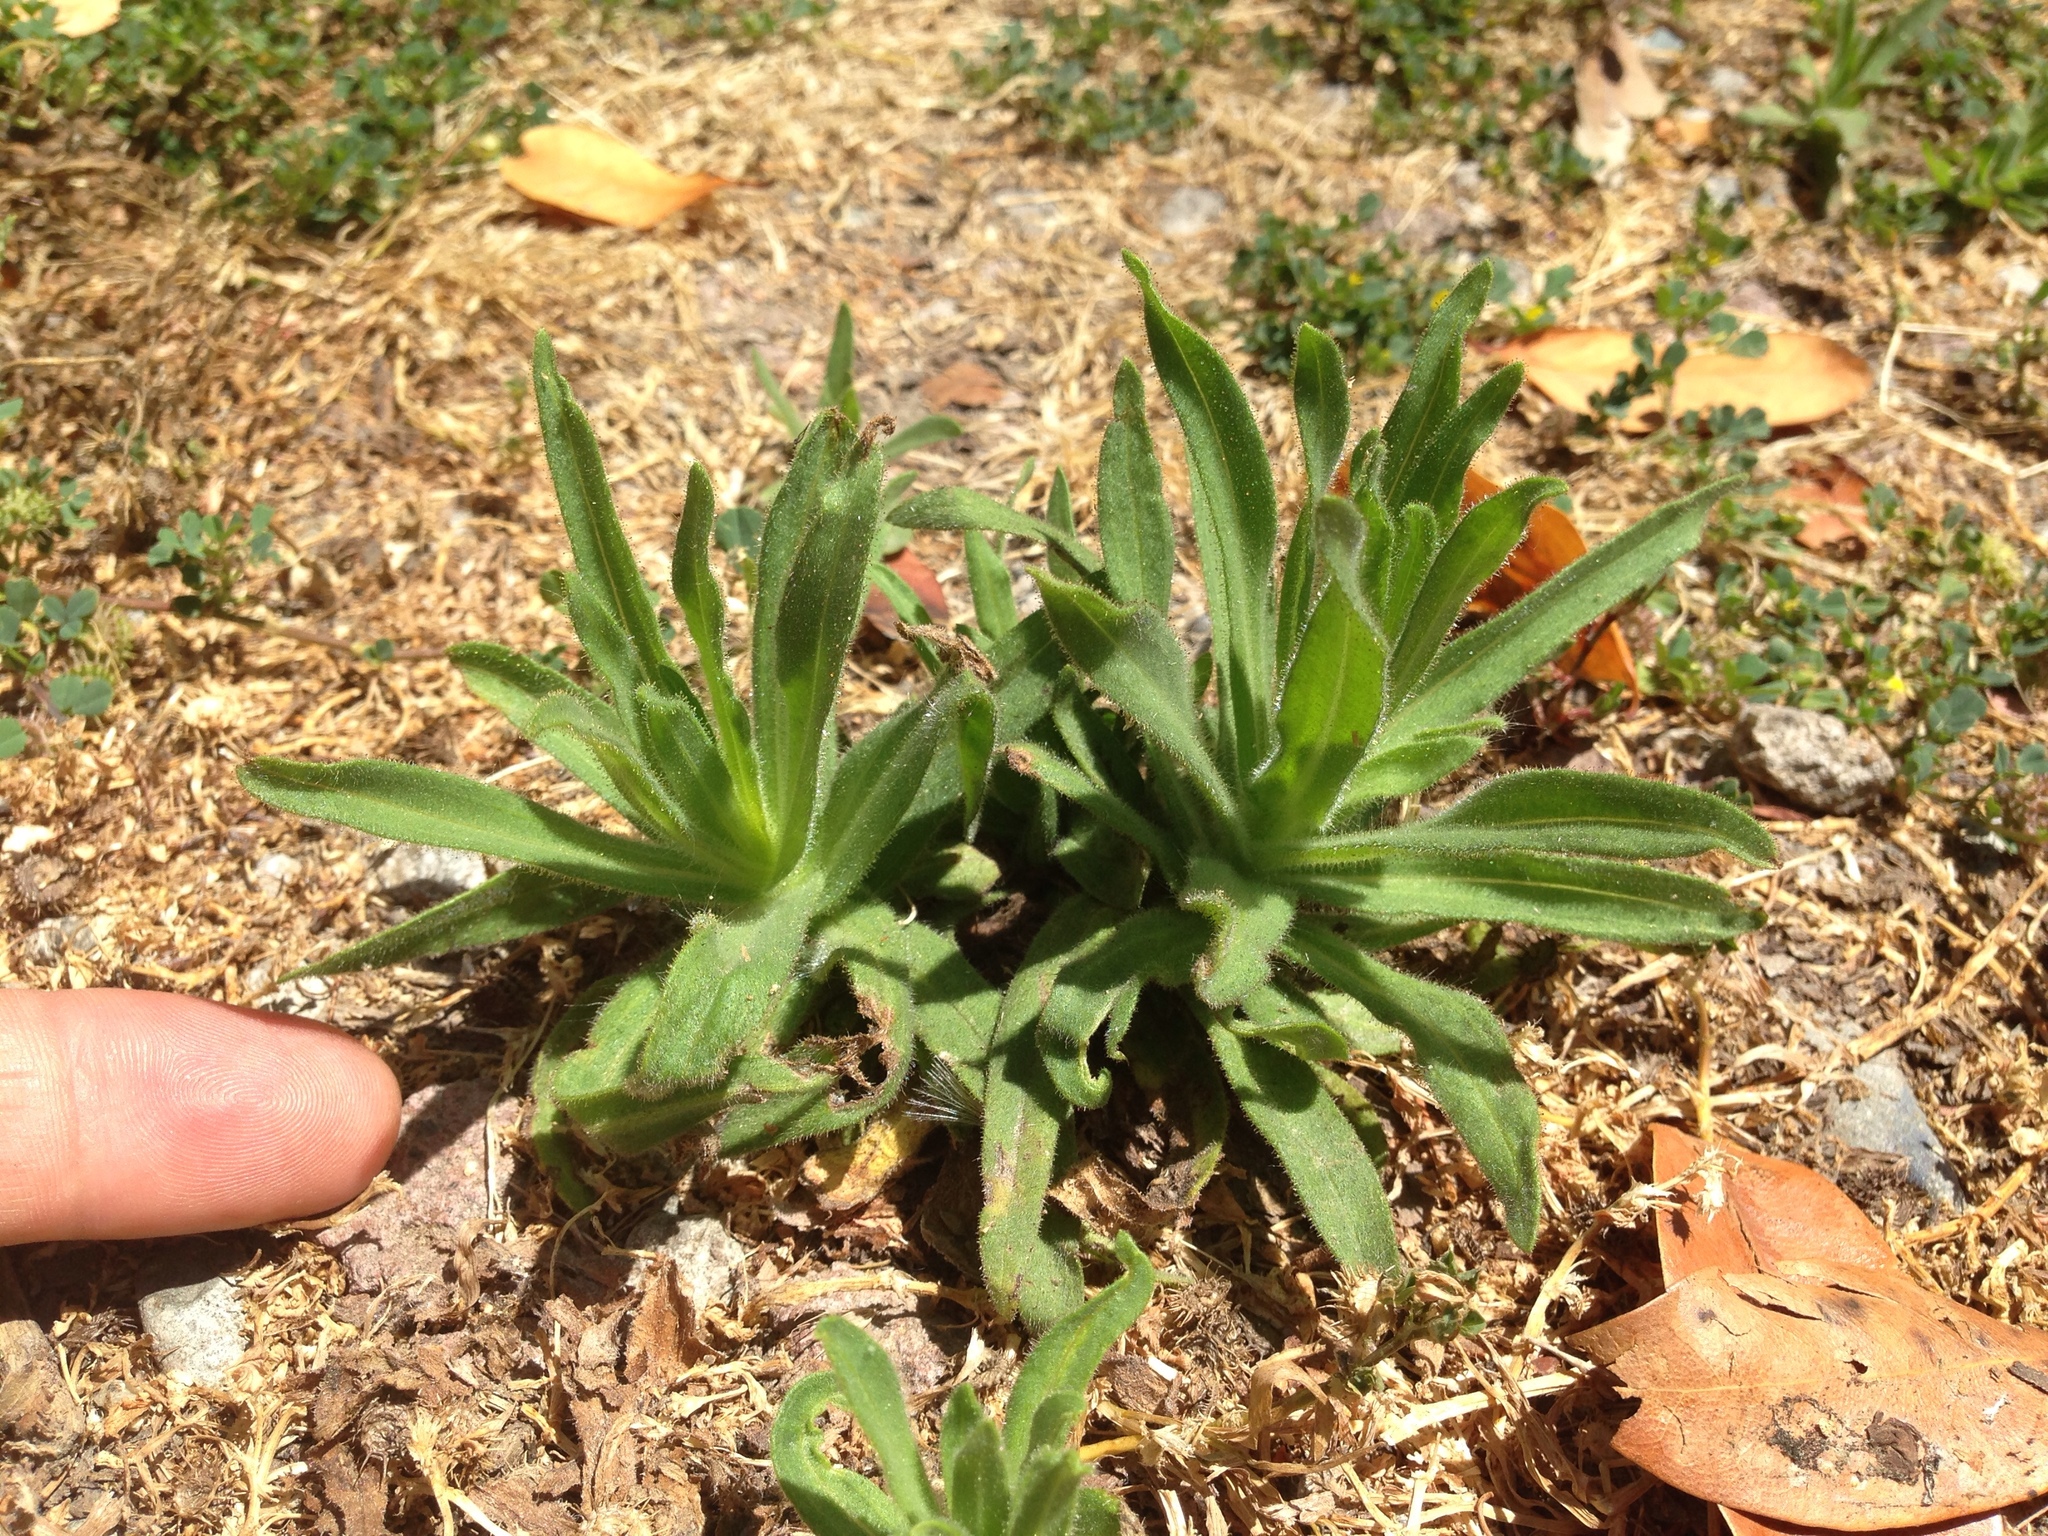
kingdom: Plantae
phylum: Tracheophyta
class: Magnoliopsida
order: Asterales
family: Asteraceae
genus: Madia
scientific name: Madia sativa
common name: Coast tarweed
